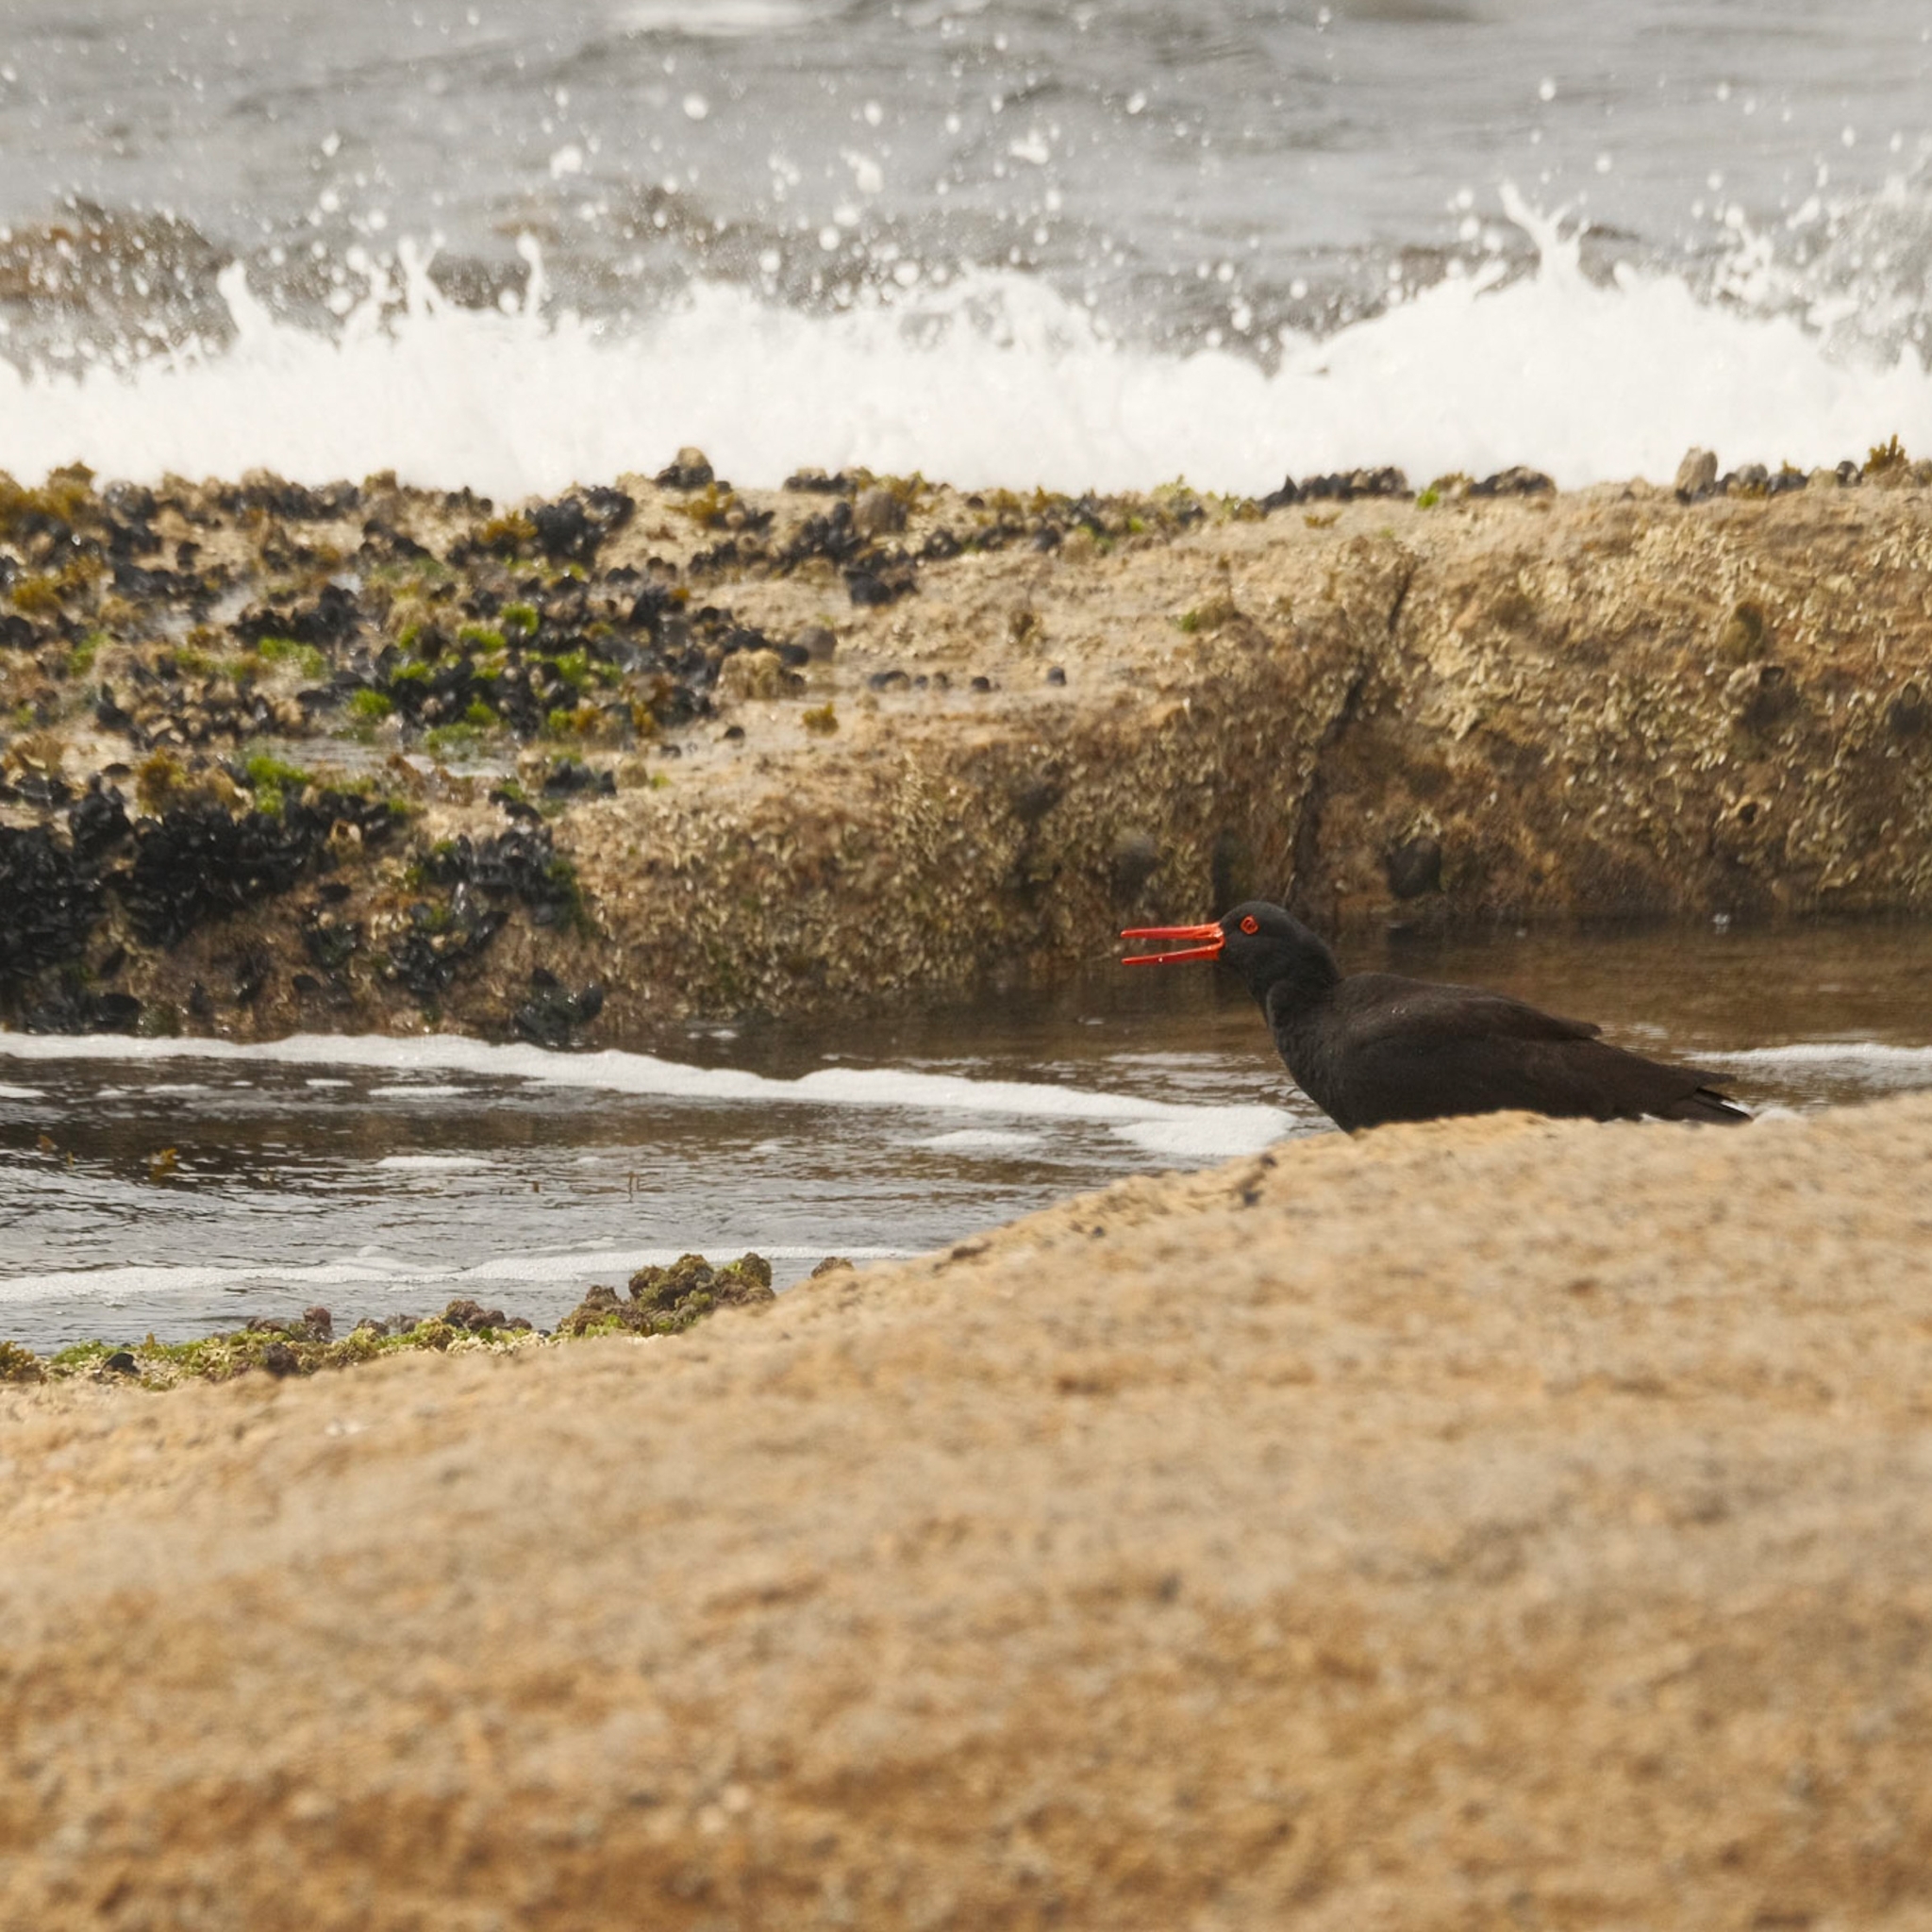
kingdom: Animalia
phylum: Chordata
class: Aves
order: Charadriiformes
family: Haematopodidae
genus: Haematopus
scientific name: Haematopus fuliginosus
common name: Sooty oystercatcher
